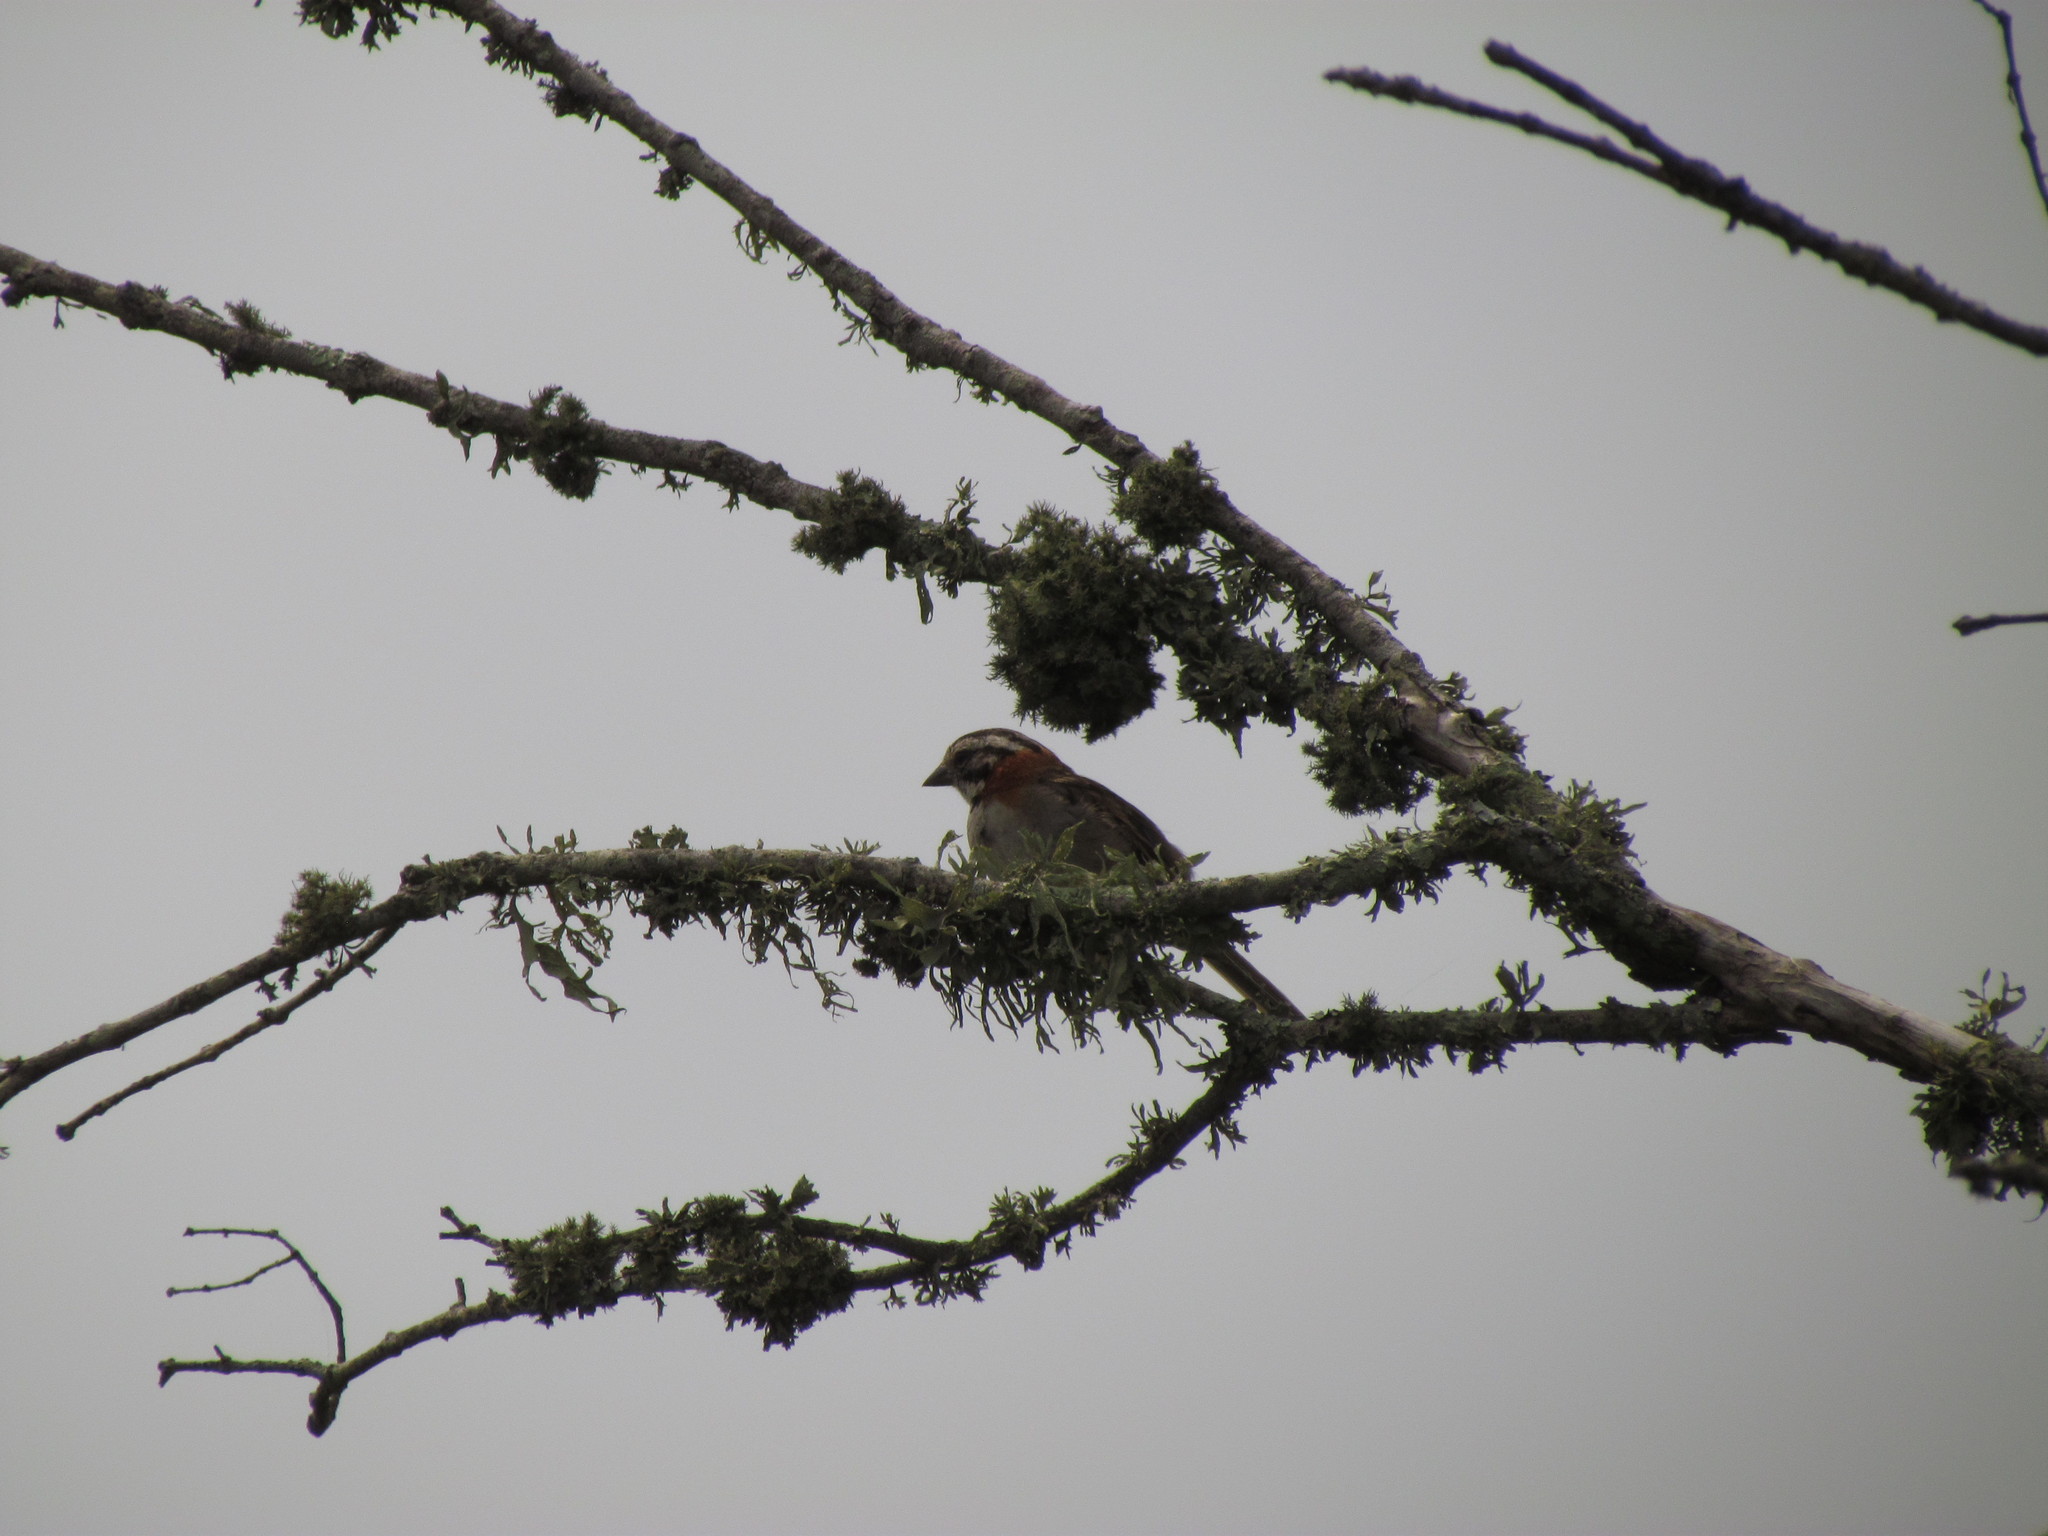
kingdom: Animalia
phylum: Chordata
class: Aves
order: Passeriformes
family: Passerellidae
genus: Zonotrichia
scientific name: Zonotrichia capensis
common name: Rufous-collared sparrow
